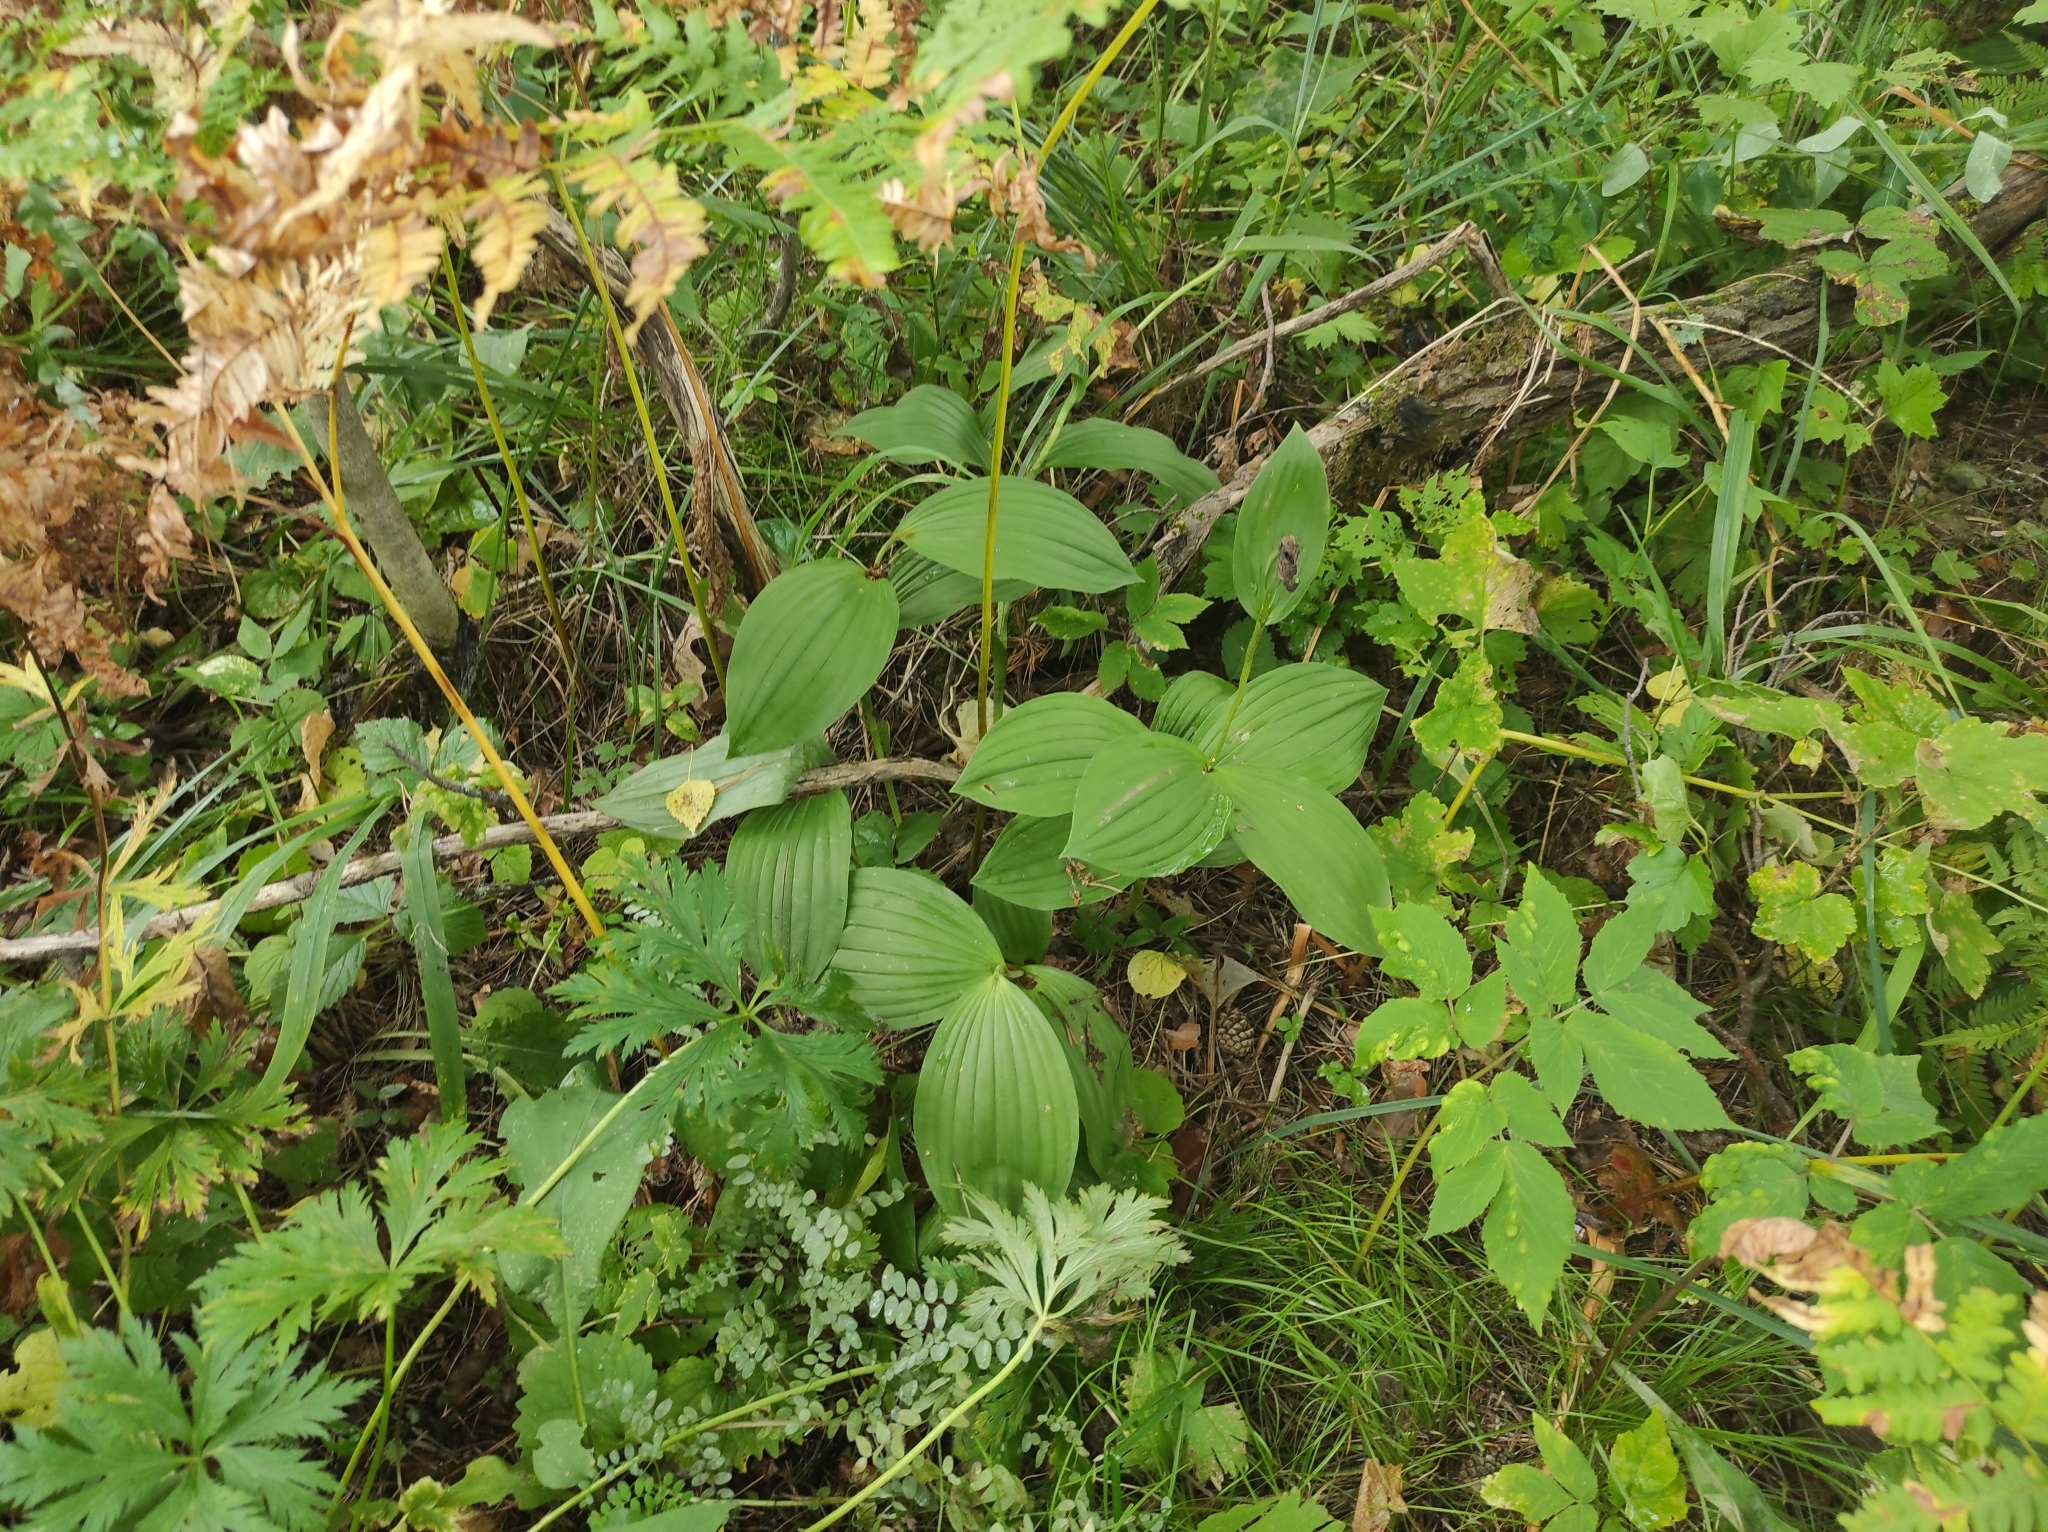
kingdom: Plantae
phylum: Tracheophyta
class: Liliopsida
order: Asparagales
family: Orchidaceae
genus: Cypripedium
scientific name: Cypripedium macranthos
